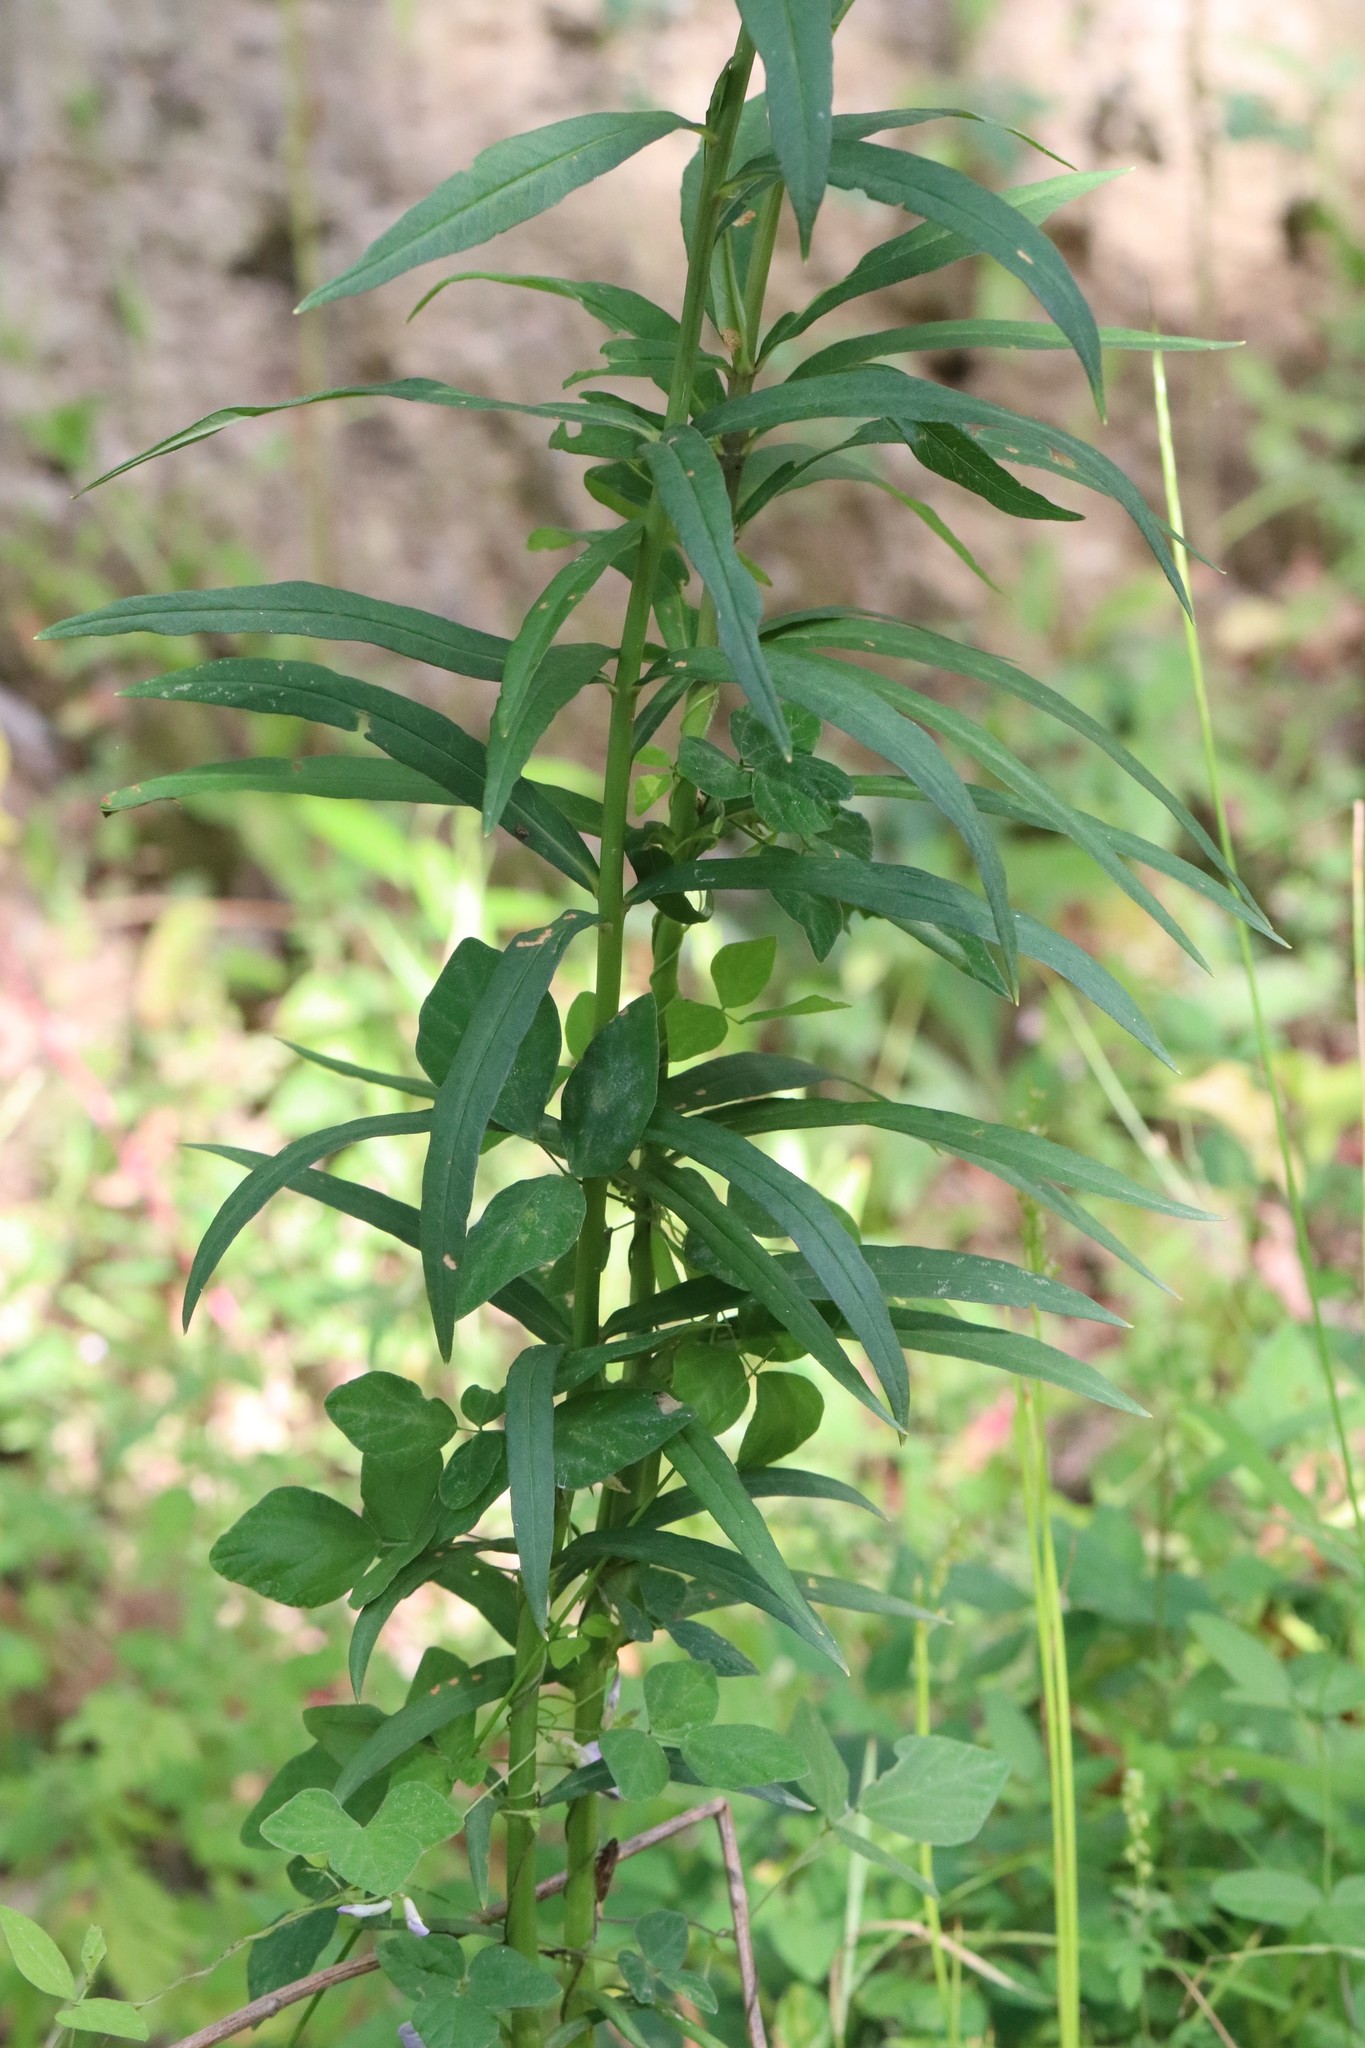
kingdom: Plantae
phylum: Tracheophyta
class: Magnoliopsida
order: Ericales
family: Primulaceae
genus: Lysimachia
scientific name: Lysimachia davurica
